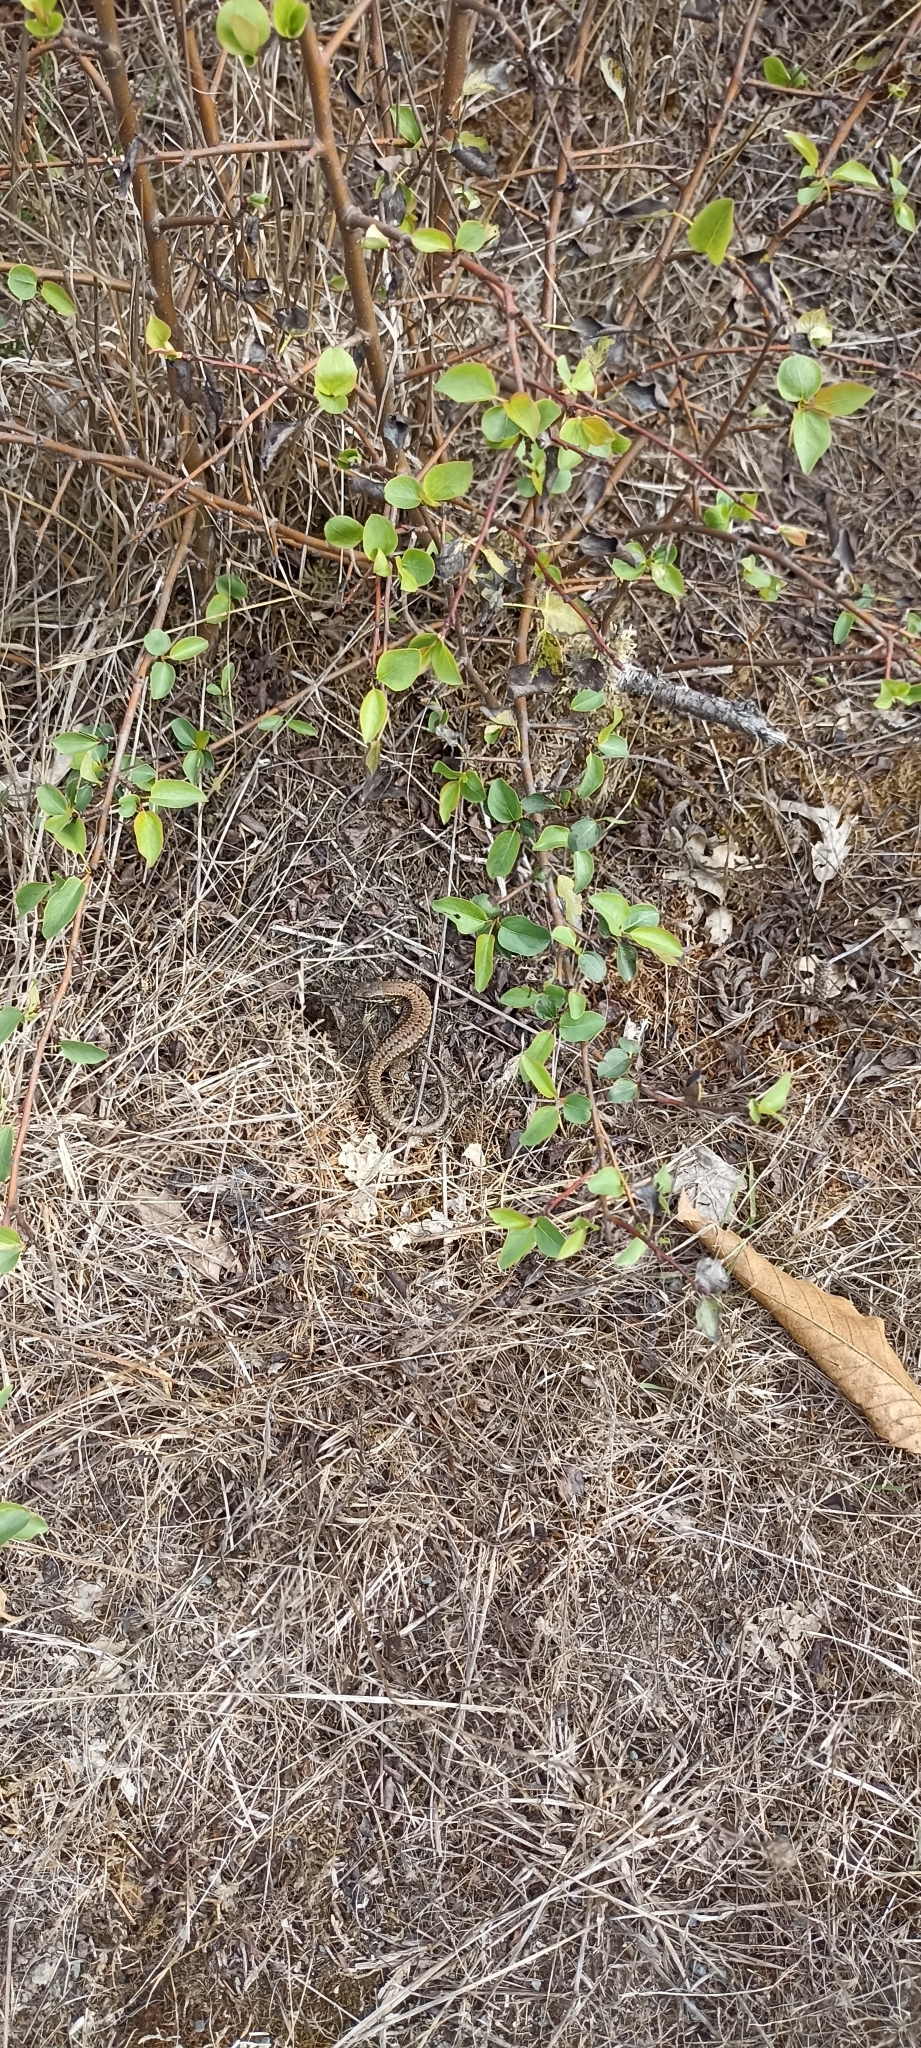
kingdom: Animalia
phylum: Chordata
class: Squamata
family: Lacertidae
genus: Podarcis
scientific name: Podarcis muralis
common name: Common wall lizard
